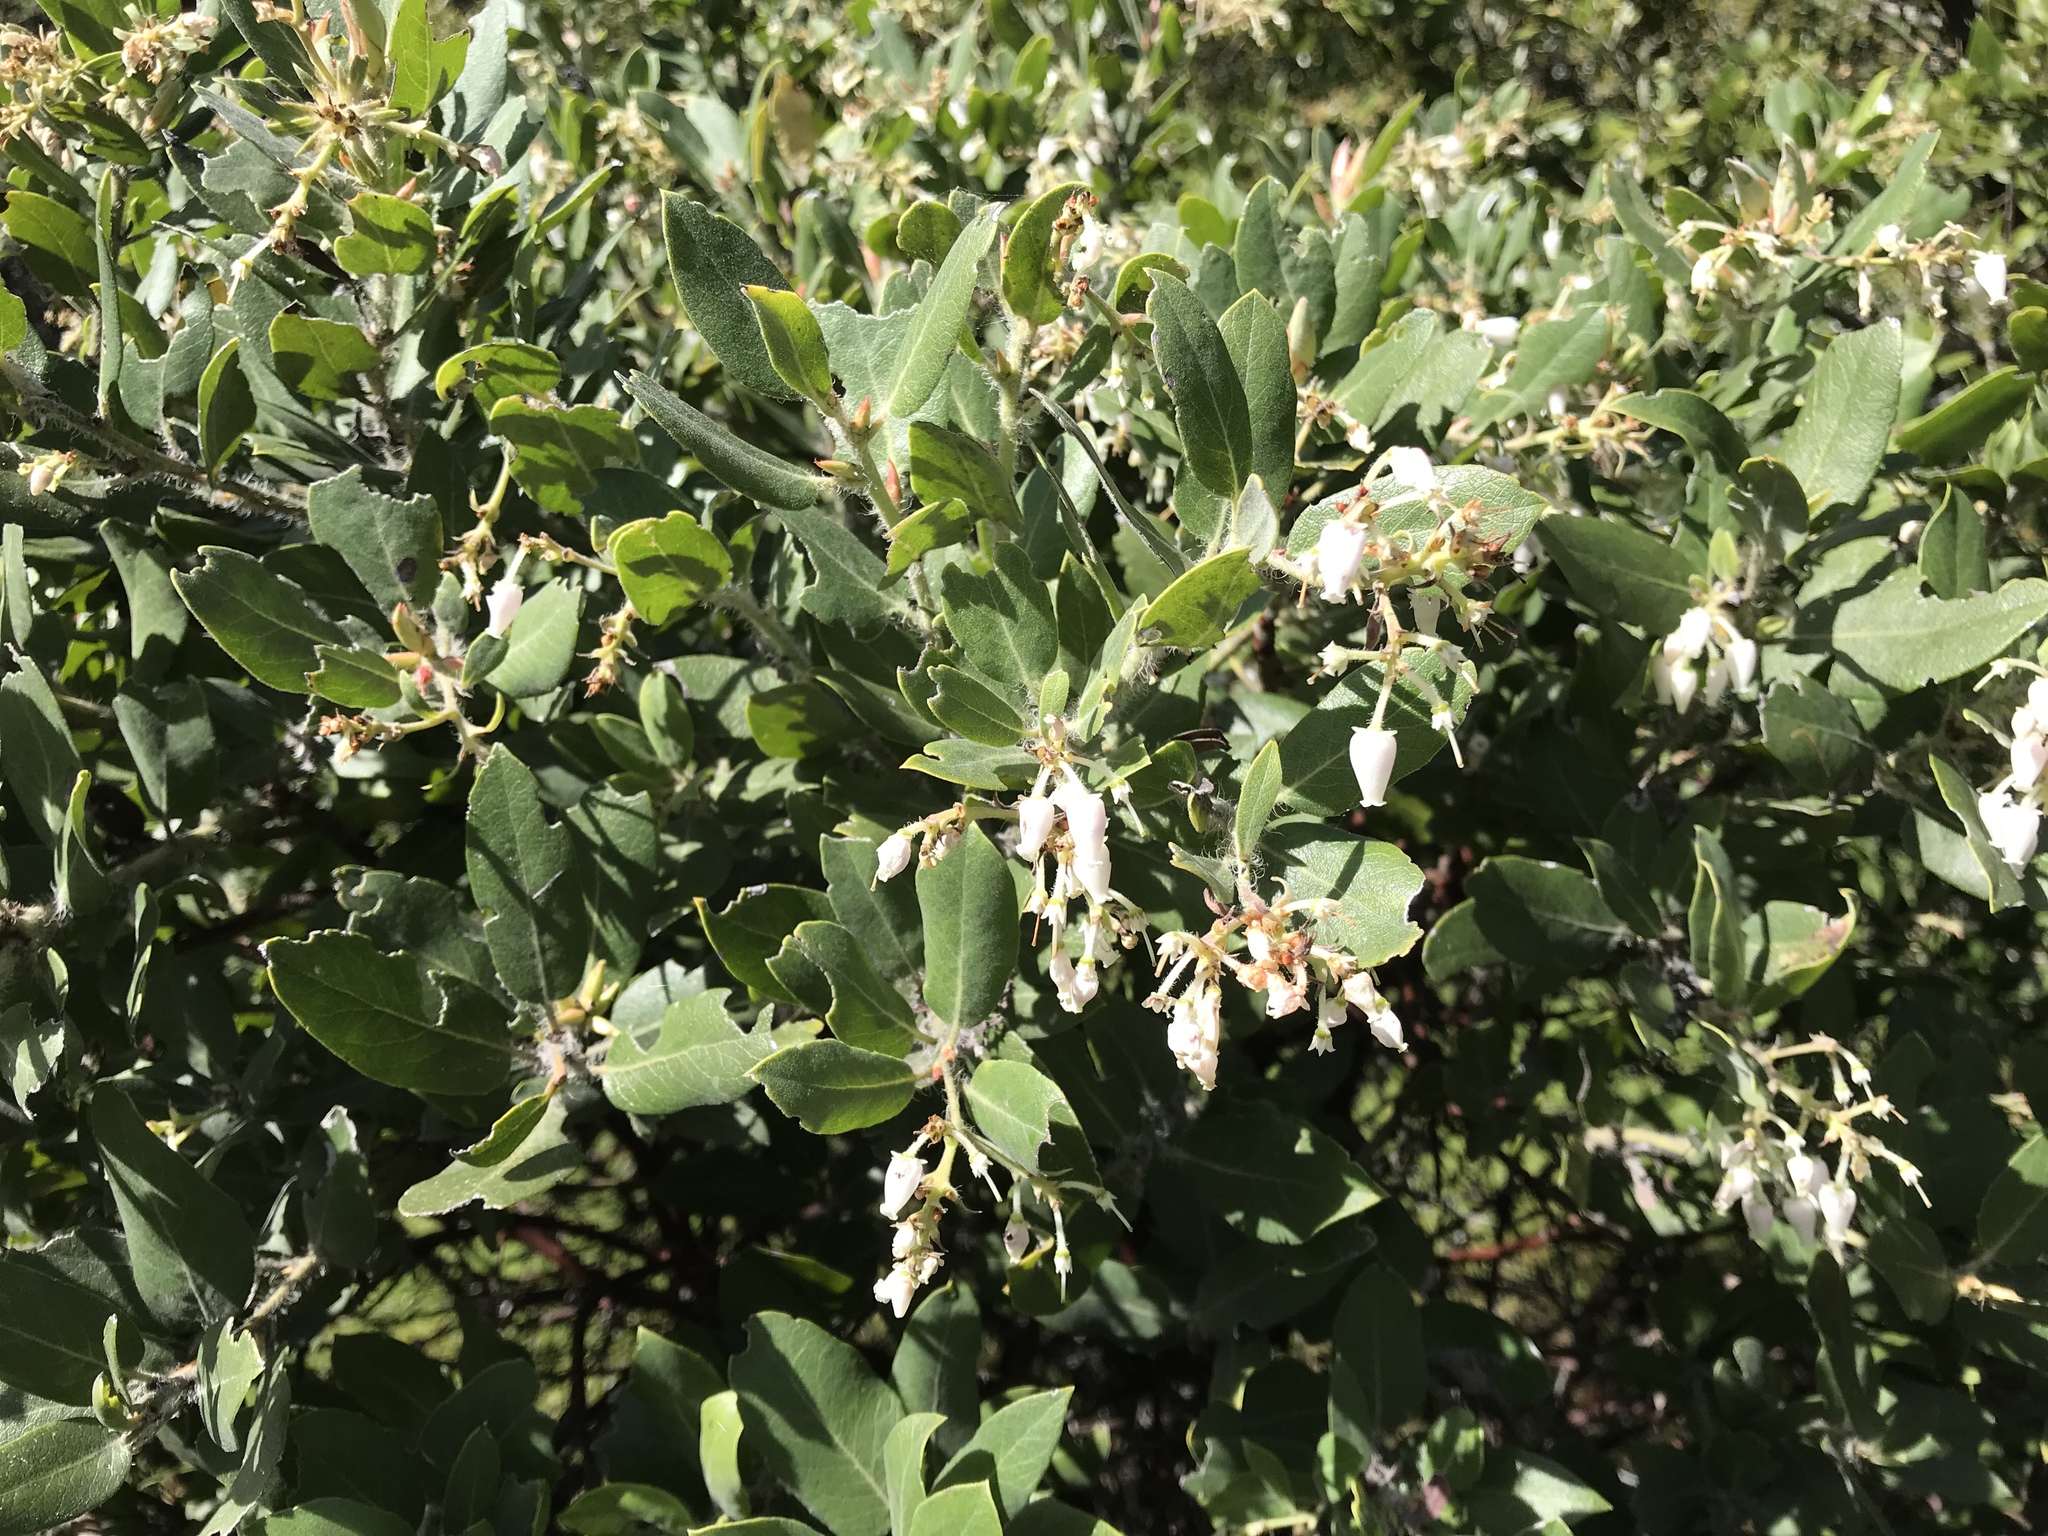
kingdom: Plantae
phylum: Tracheophyta
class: Magnoliopsida
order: Rosales
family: Rhamnaceae
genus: Ceanothus
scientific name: Ceanothus cuneatus
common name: Cuneate ceanothus
